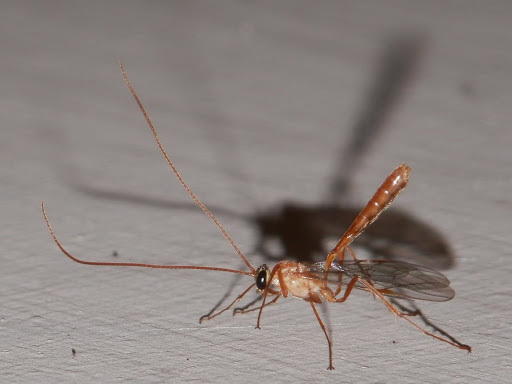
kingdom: Animalia
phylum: Arthropoda
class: Insecta
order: Hymenoptera
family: Ichneumonidae
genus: Ophion
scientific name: Ophion
